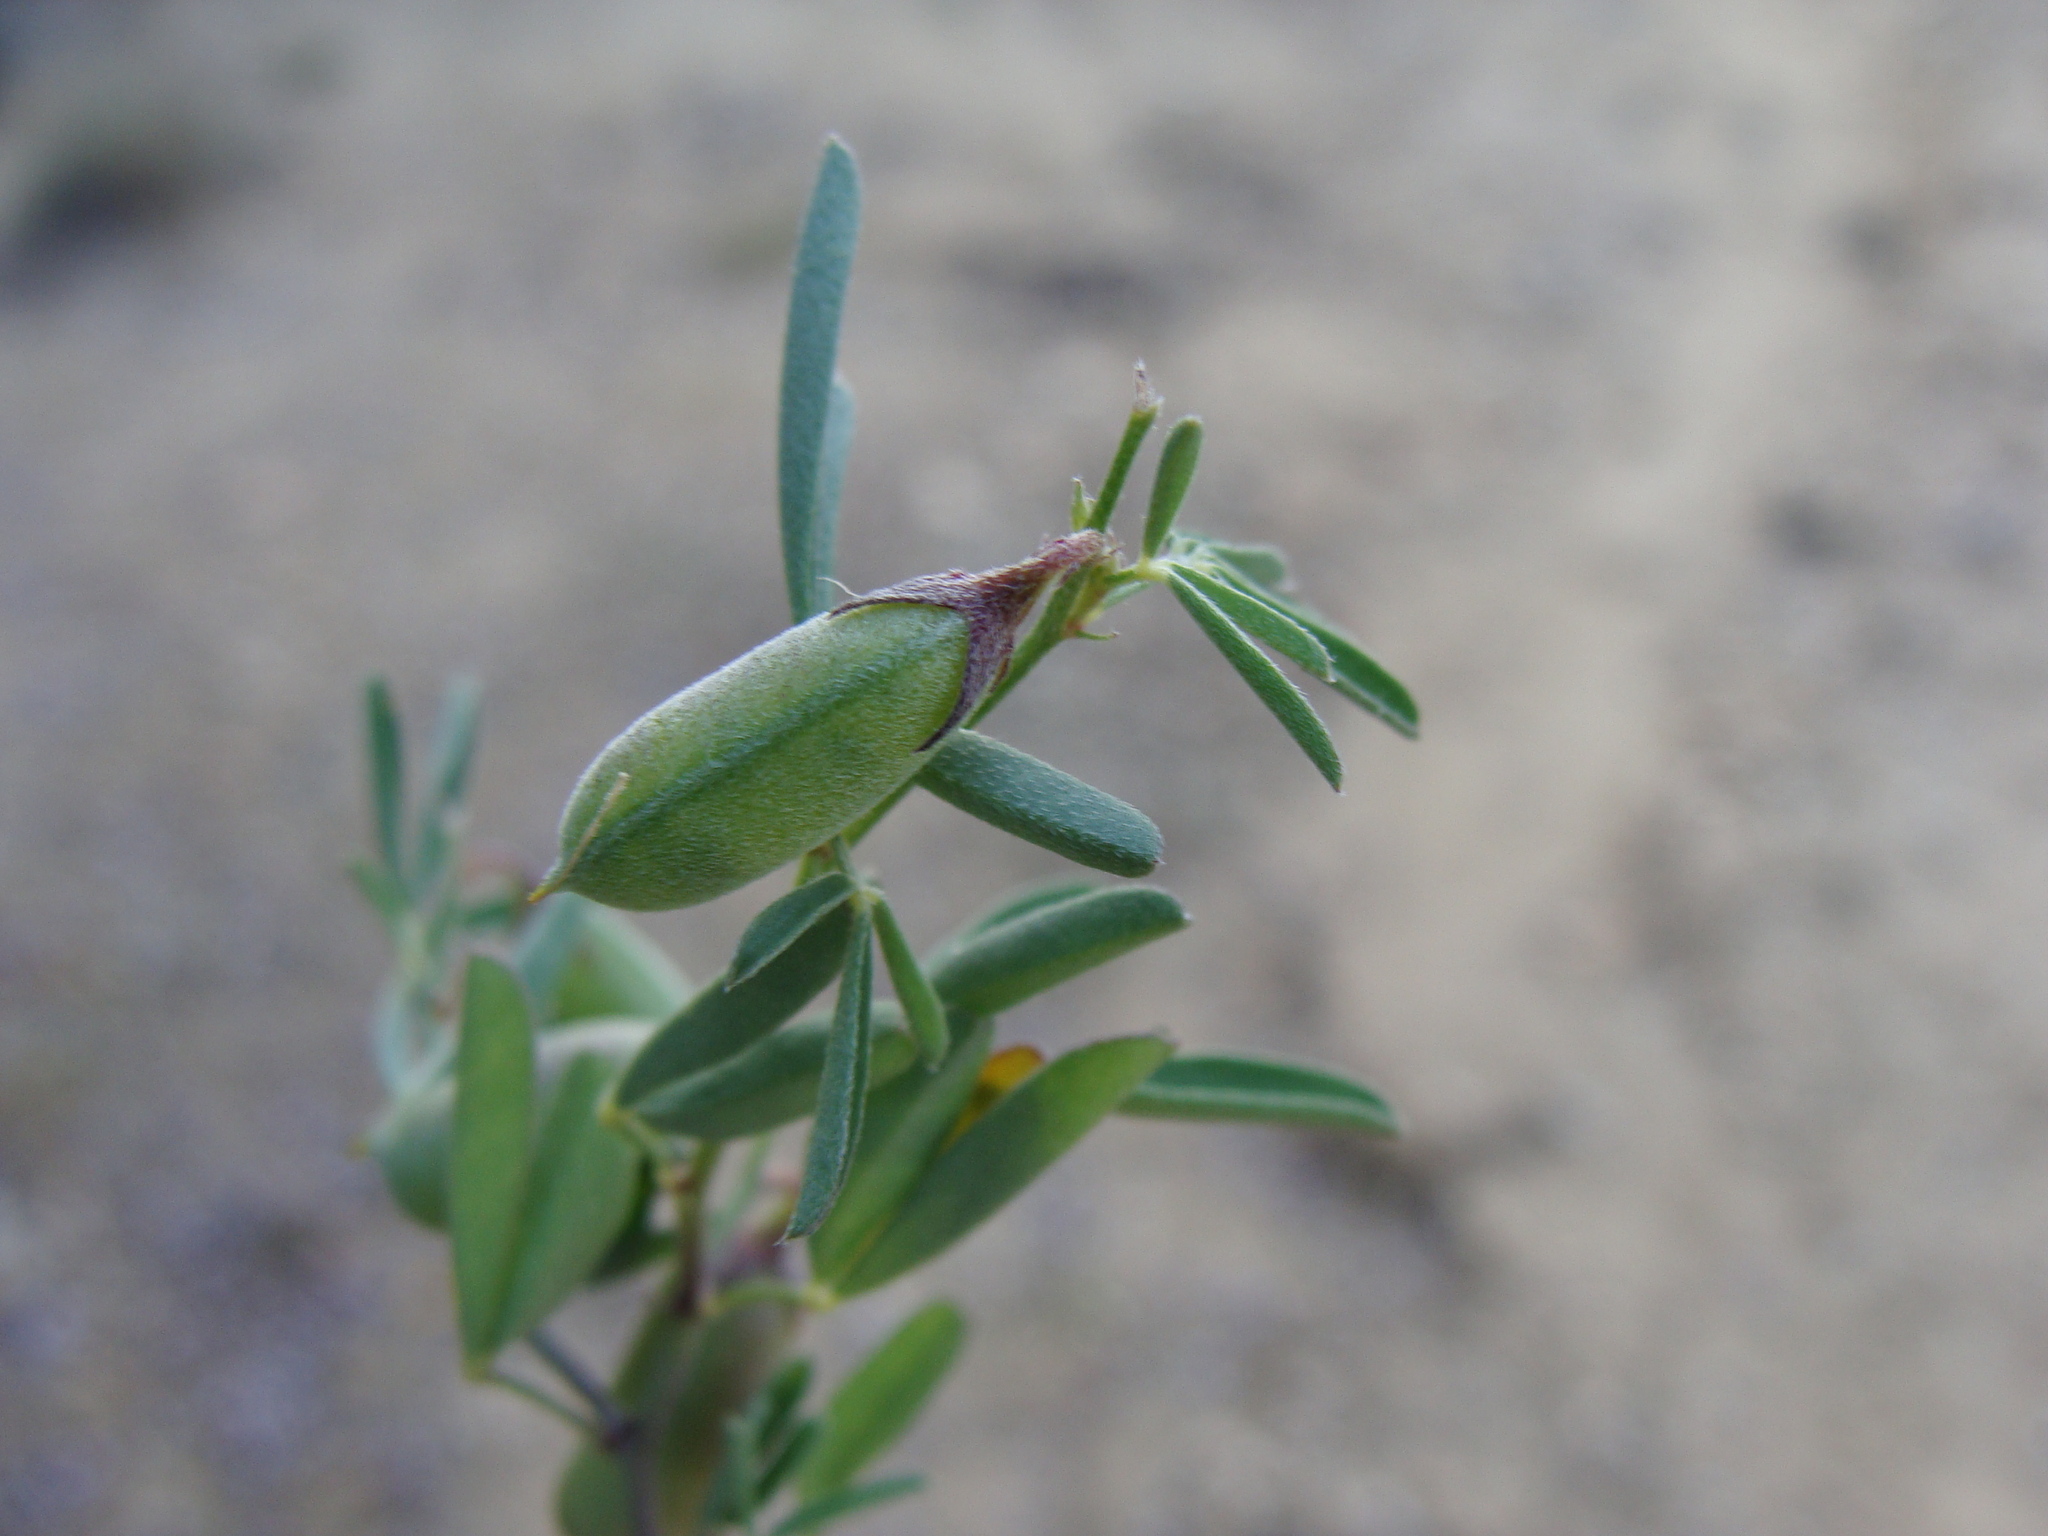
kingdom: Plantae
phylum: Tracheophyta
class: Magnoliopsida
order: Fabales
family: Fabaceae
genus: Crotalaria
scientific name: Crotalaria pumila
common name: Low rattlebox
